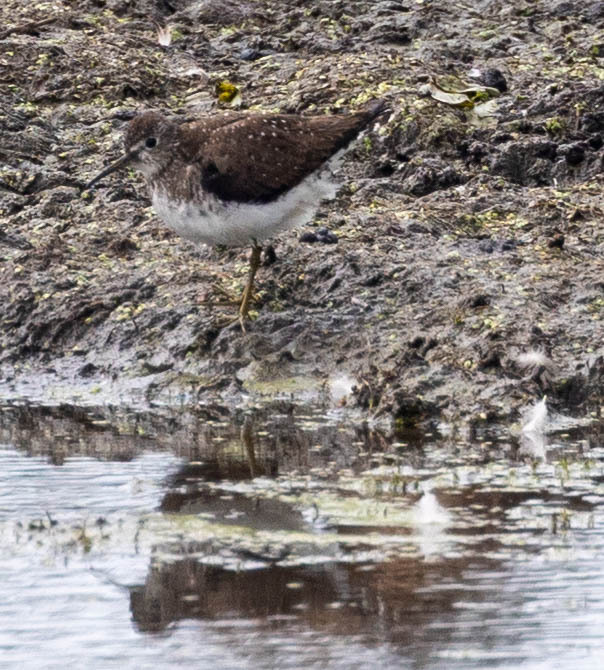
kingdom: Animalia
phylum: Chordata
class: Aves
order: Charadriiformes
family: Scolopacidae
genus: Tringa
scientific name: Tringa solitaria
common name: Solitary sandpiper
